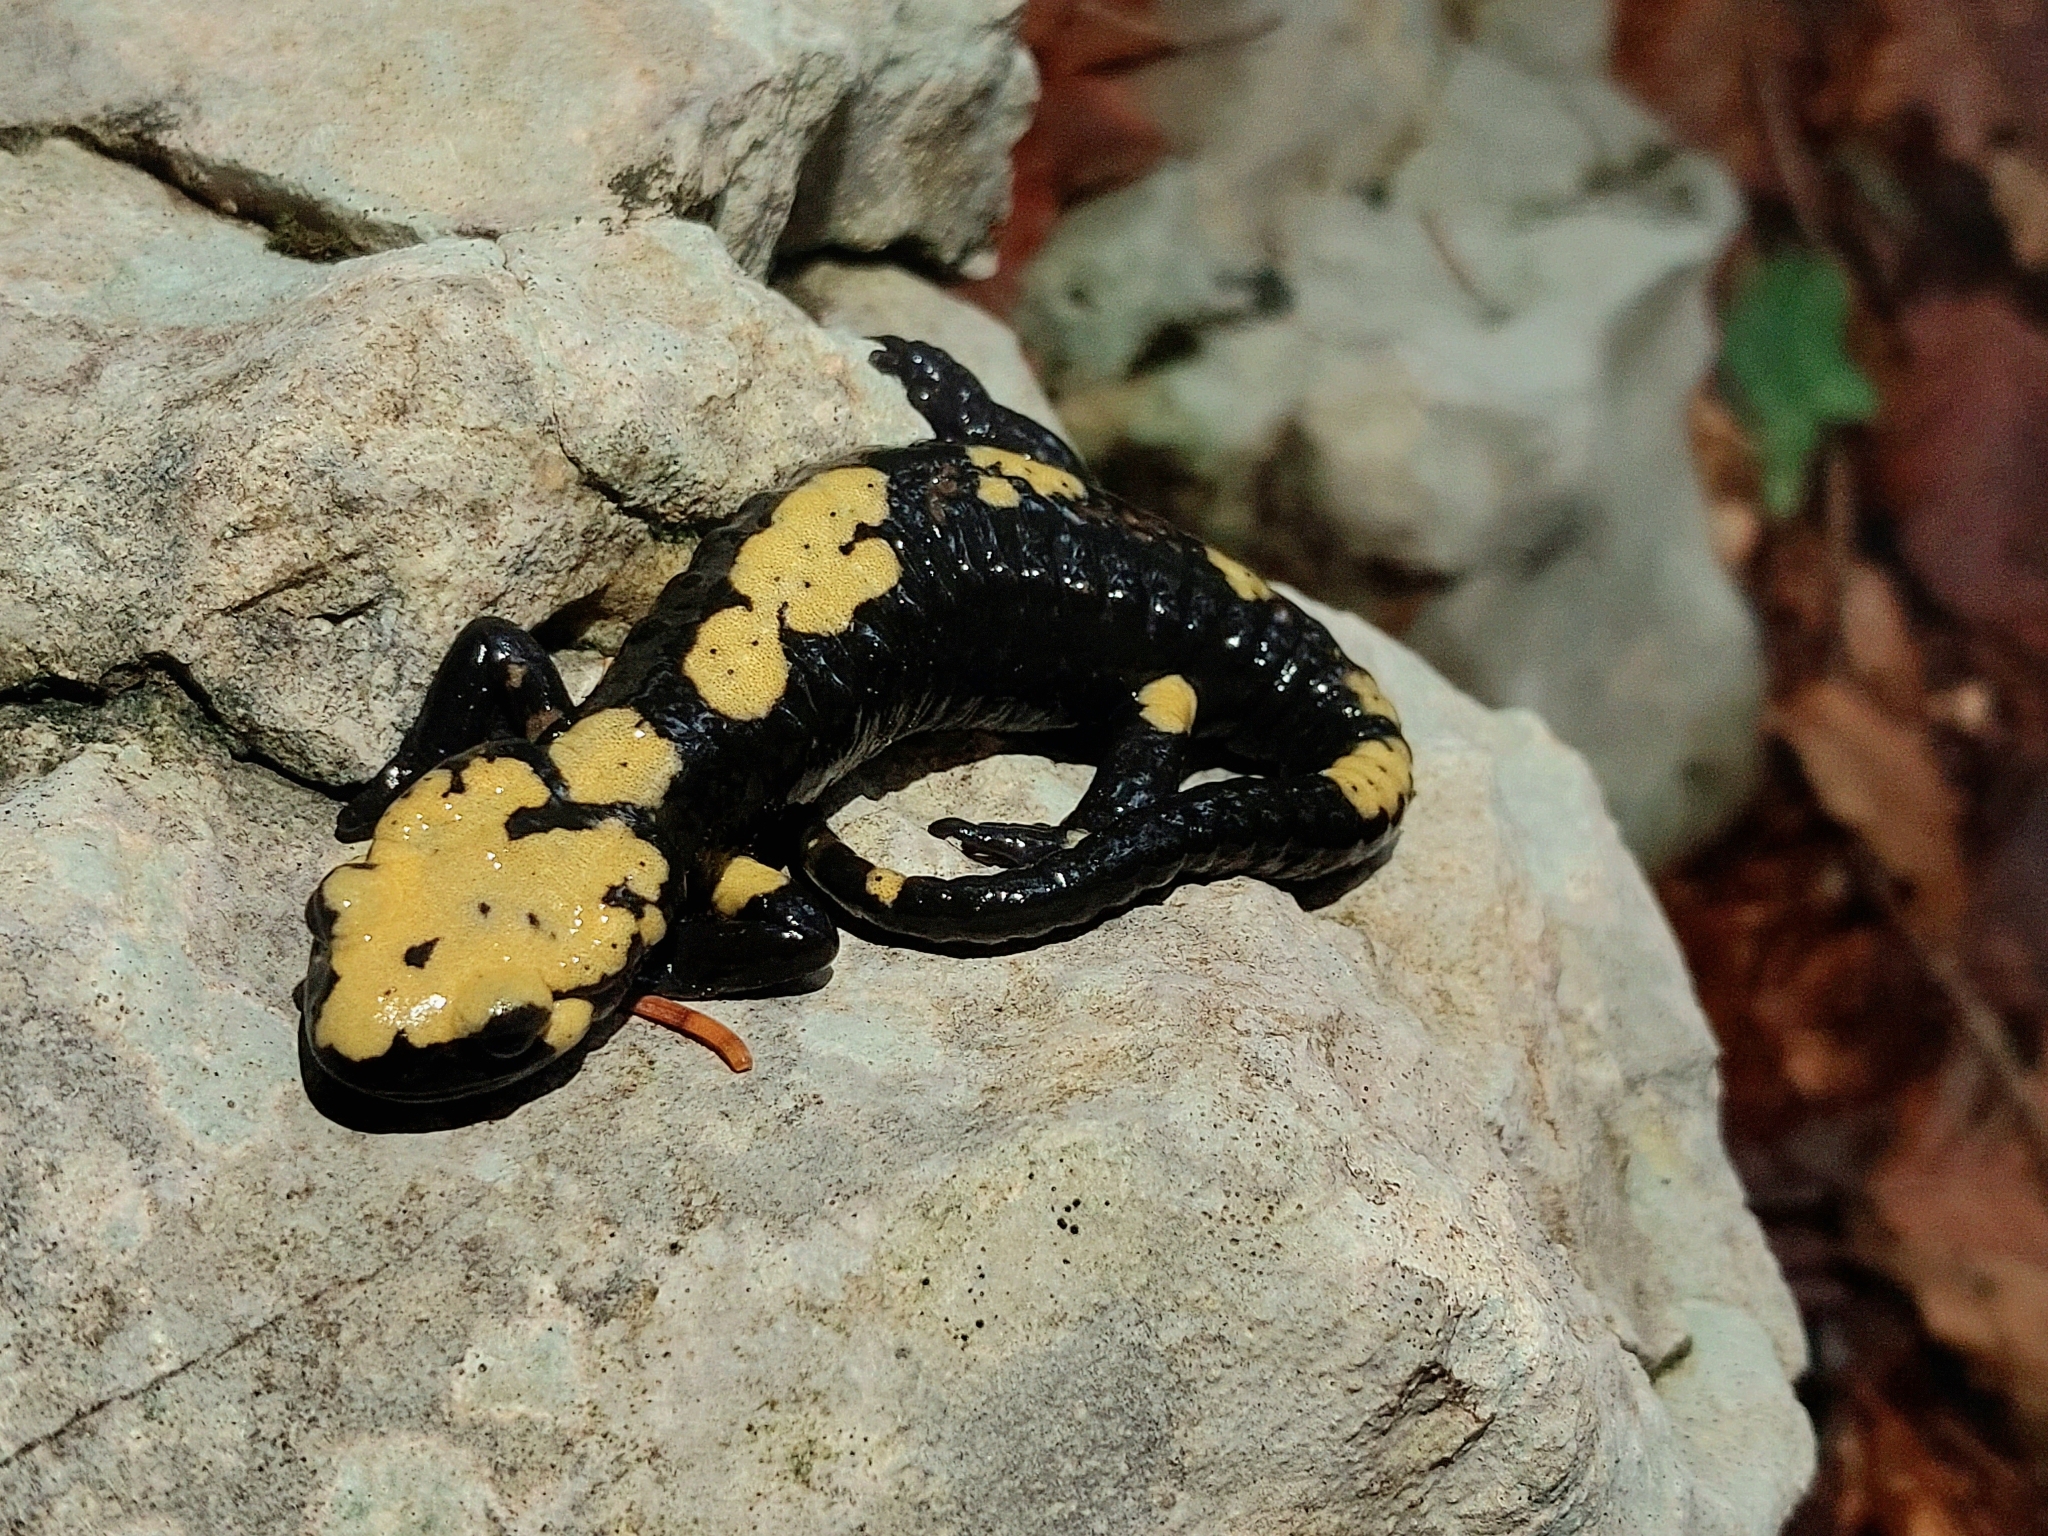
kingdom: Animalia
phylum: Chordata
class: Amphibia
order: Caudata
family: Salamandridae
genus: Salamandra
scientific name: Salamandra atra
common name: Alpine salamander
